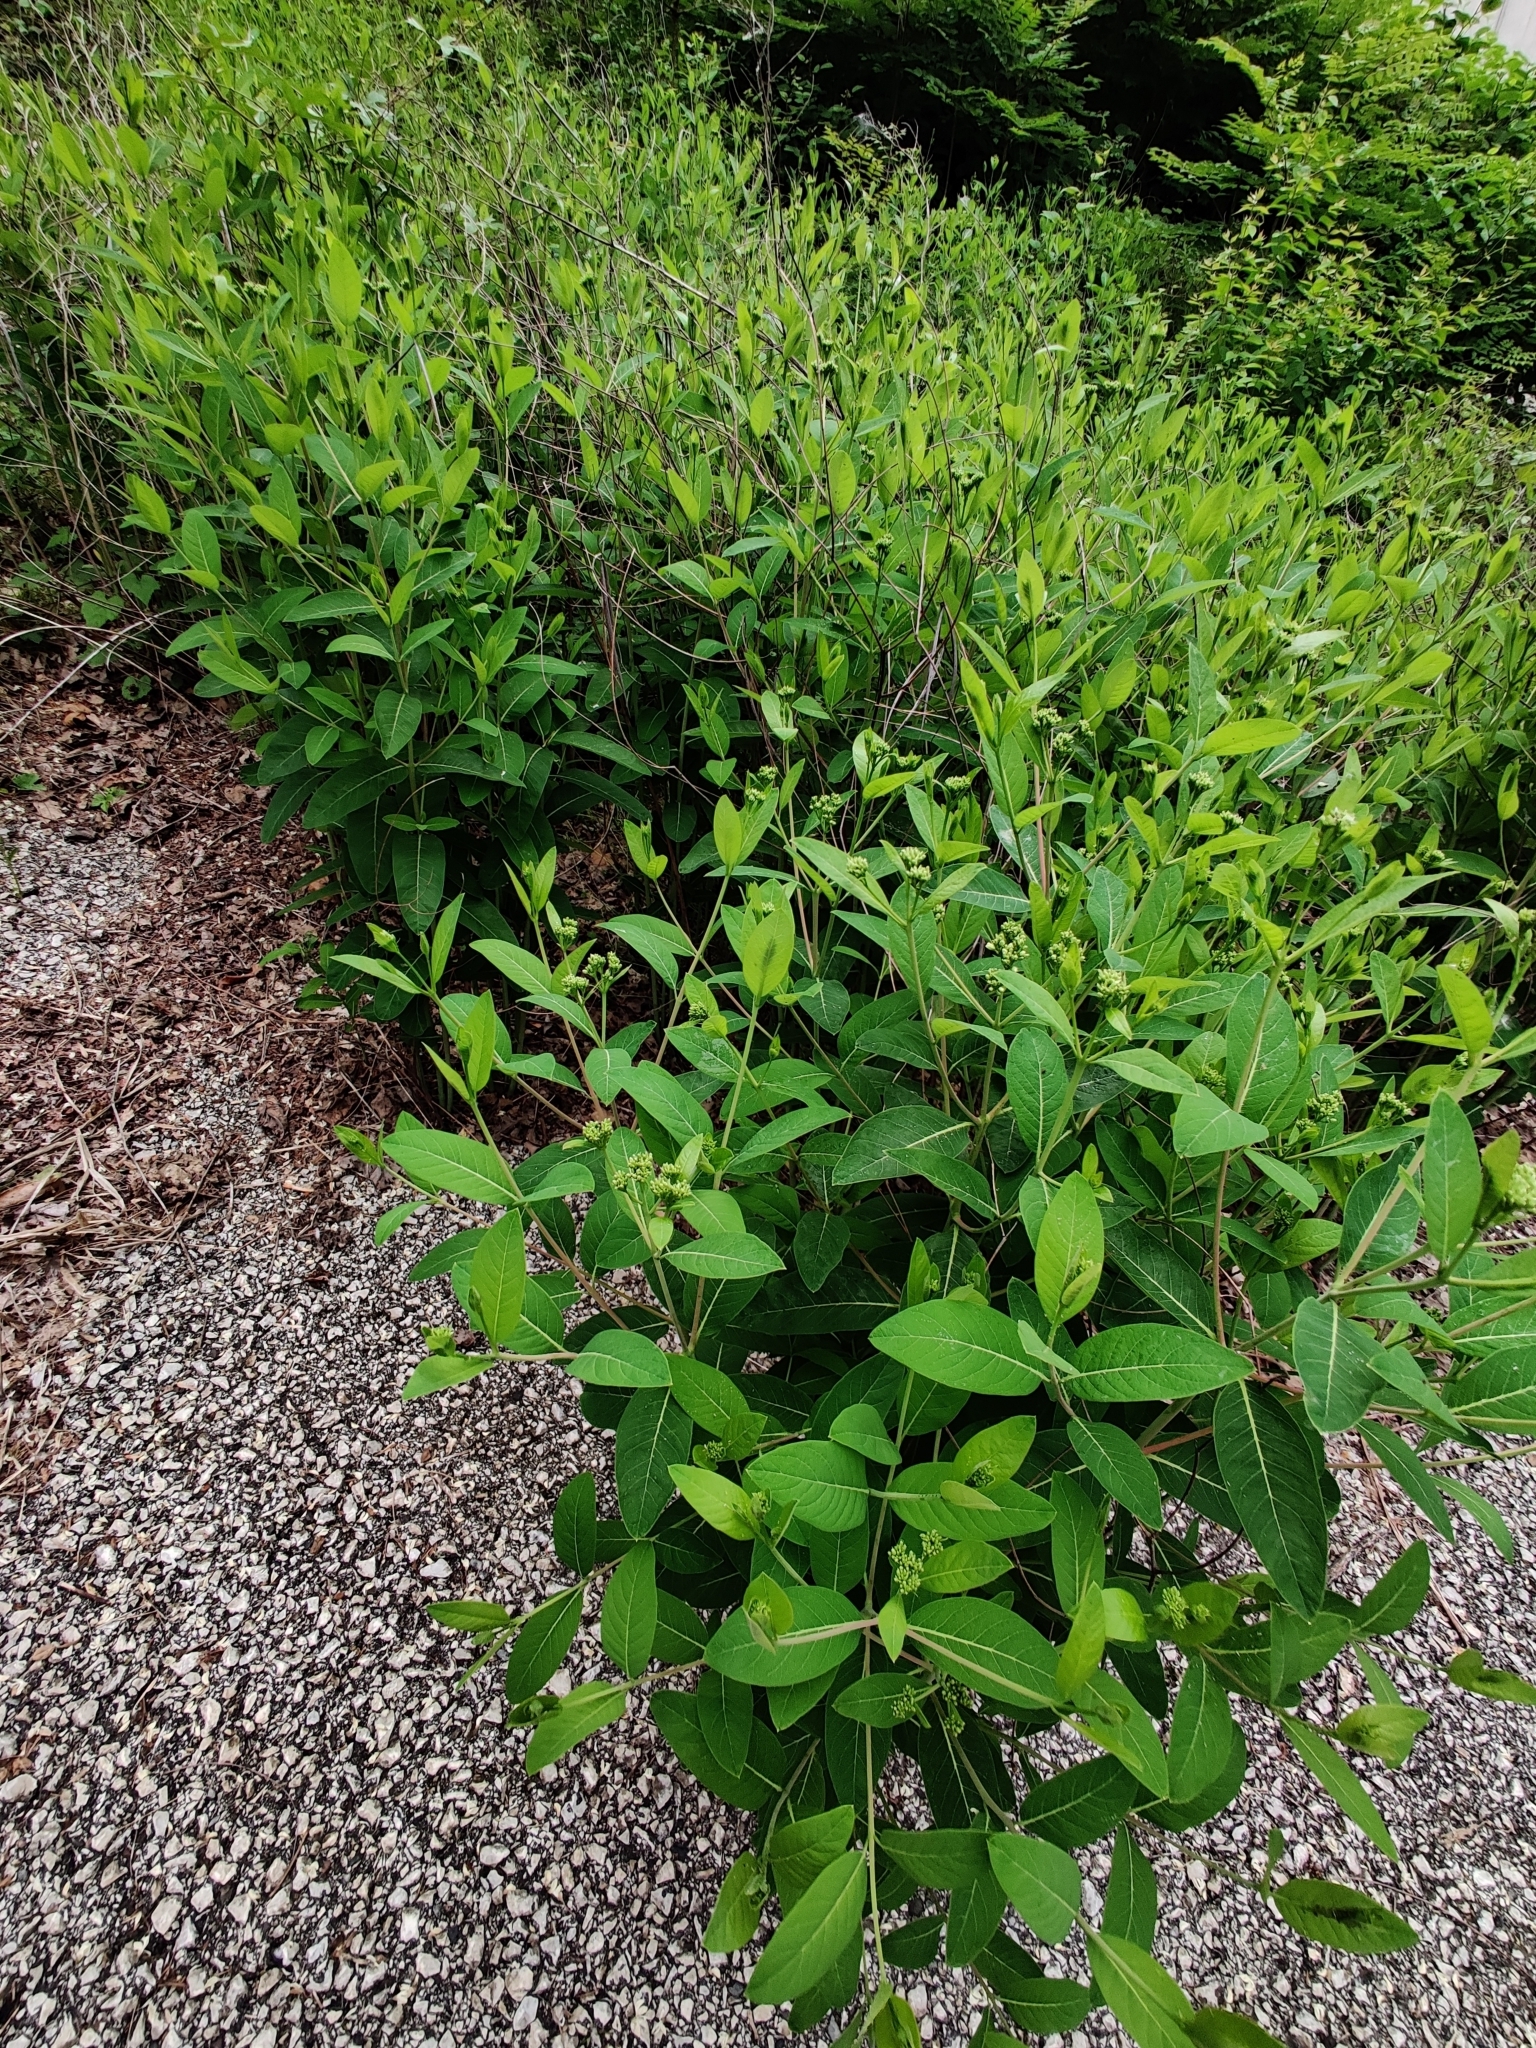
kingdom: Plantae
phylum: Tracheophyta
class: Magnoliopsida
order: Gentianales
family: Apocynaceae
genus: Apocynum
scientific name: Apocynum cannabinum
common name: Hemp dogbane
